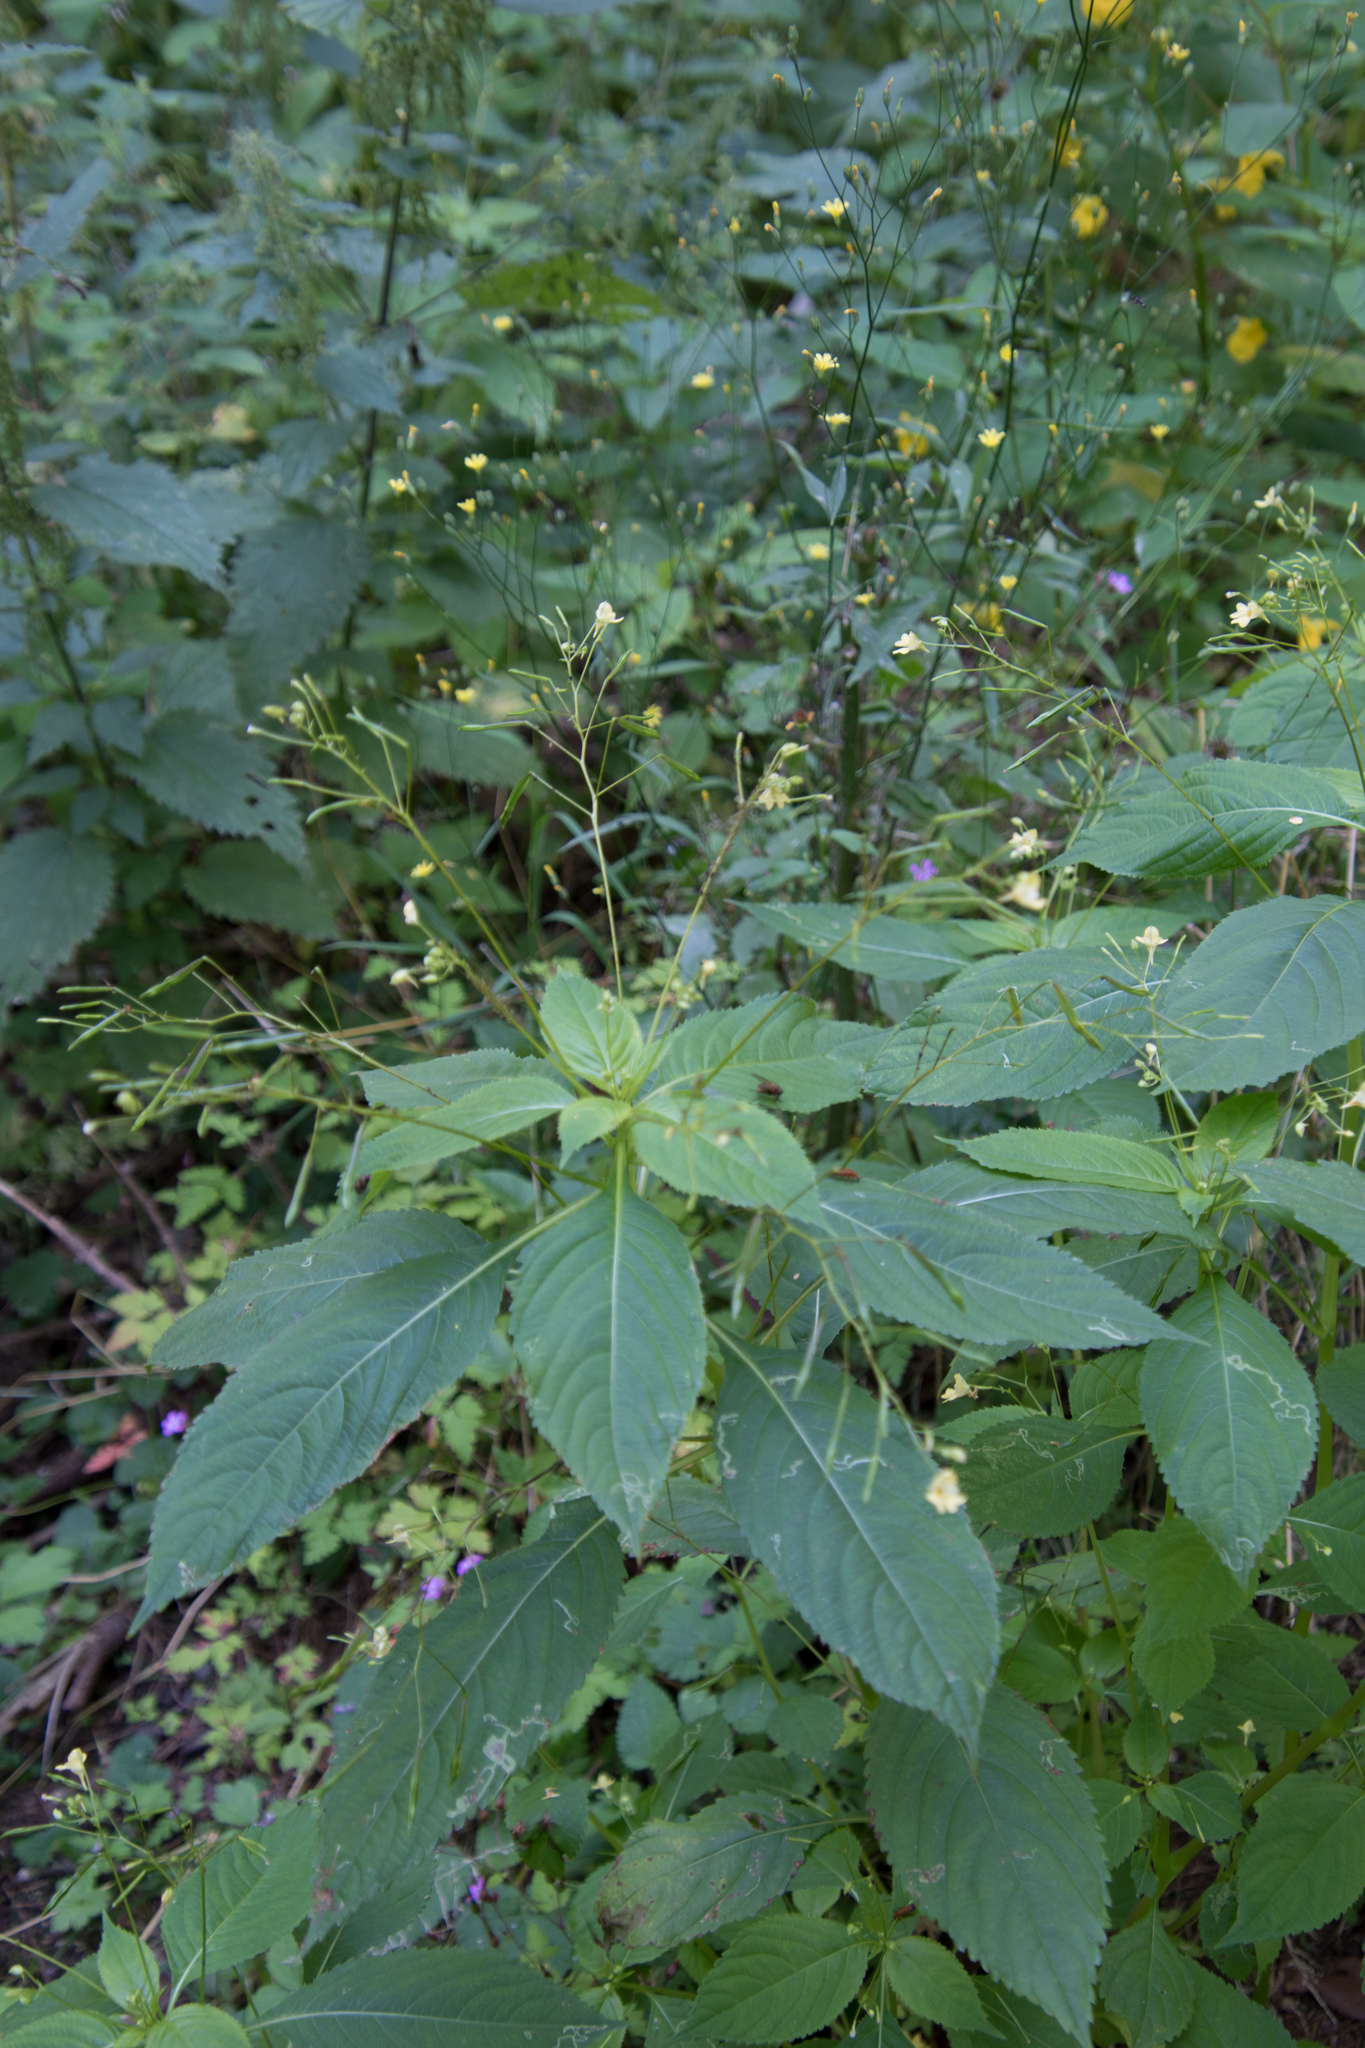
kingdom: Plantae
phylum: Tracheophyta
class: Magnoliopsida
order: Ericales
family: Balsaminaceae
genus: Impatiens
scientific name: Impatiens parviflora
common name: Small balsam
